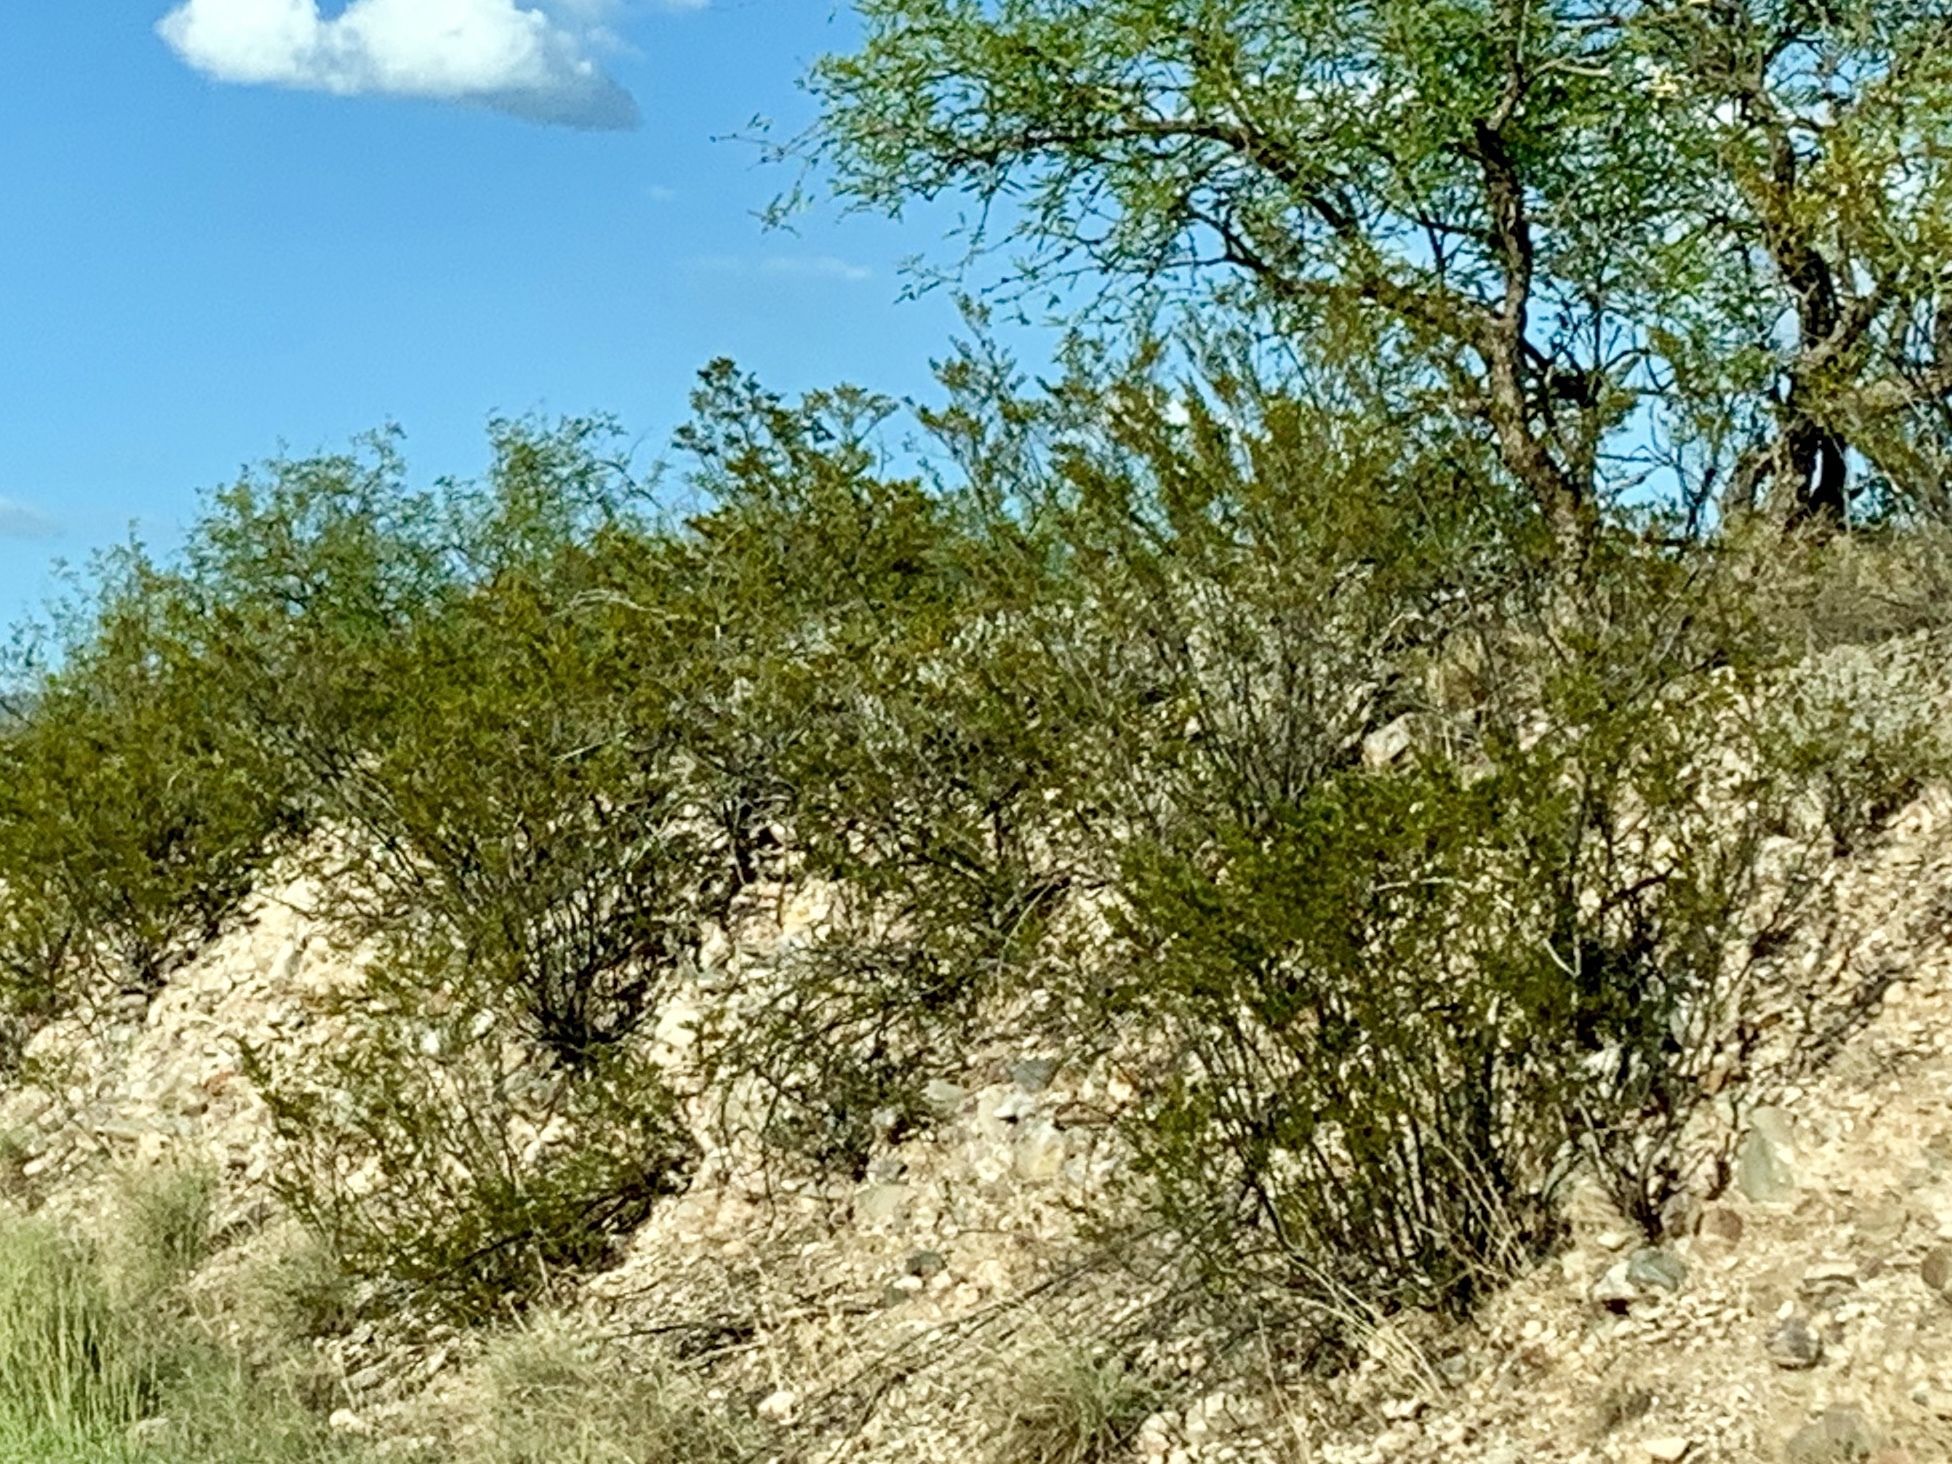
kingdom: Plantae
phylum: Tracheophyta
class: Magnoliopsida
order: Zygophyllales
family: Zygophyllaceae
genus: Larrea
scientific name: Larrea tridentata
